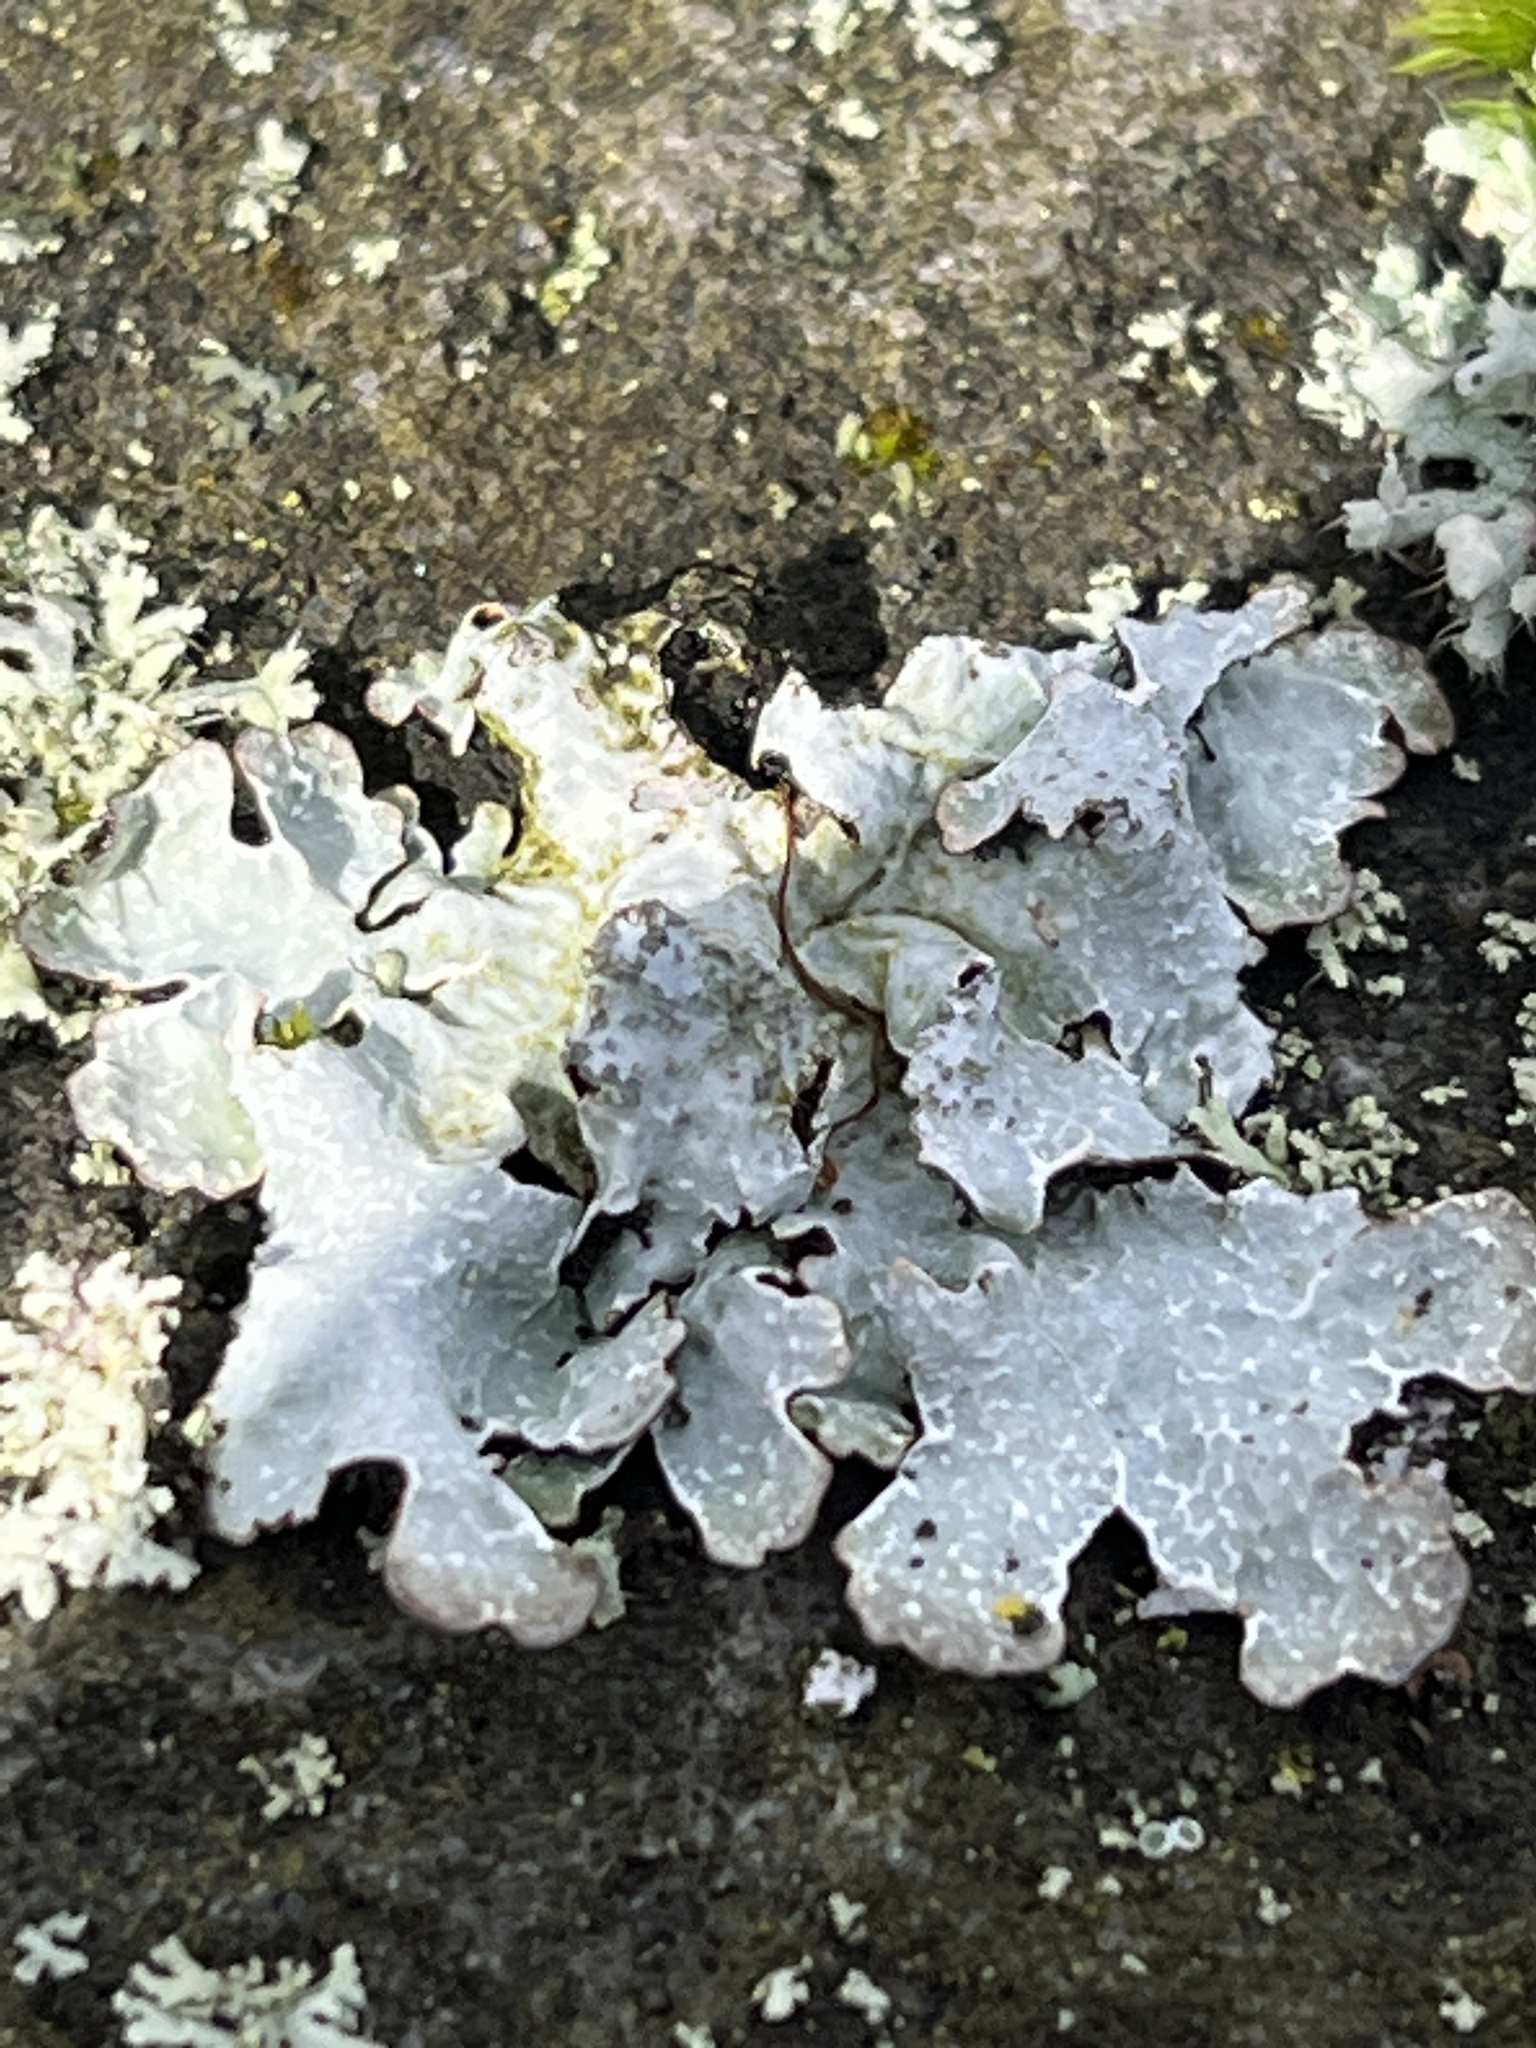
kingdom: Fungi
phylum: Ascomycota
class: Lecanoromycetes
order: Lecanorales
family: Parmeliaceae
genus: Parmelia
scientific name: Parmelia sulcata
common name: Netted shield lichen
